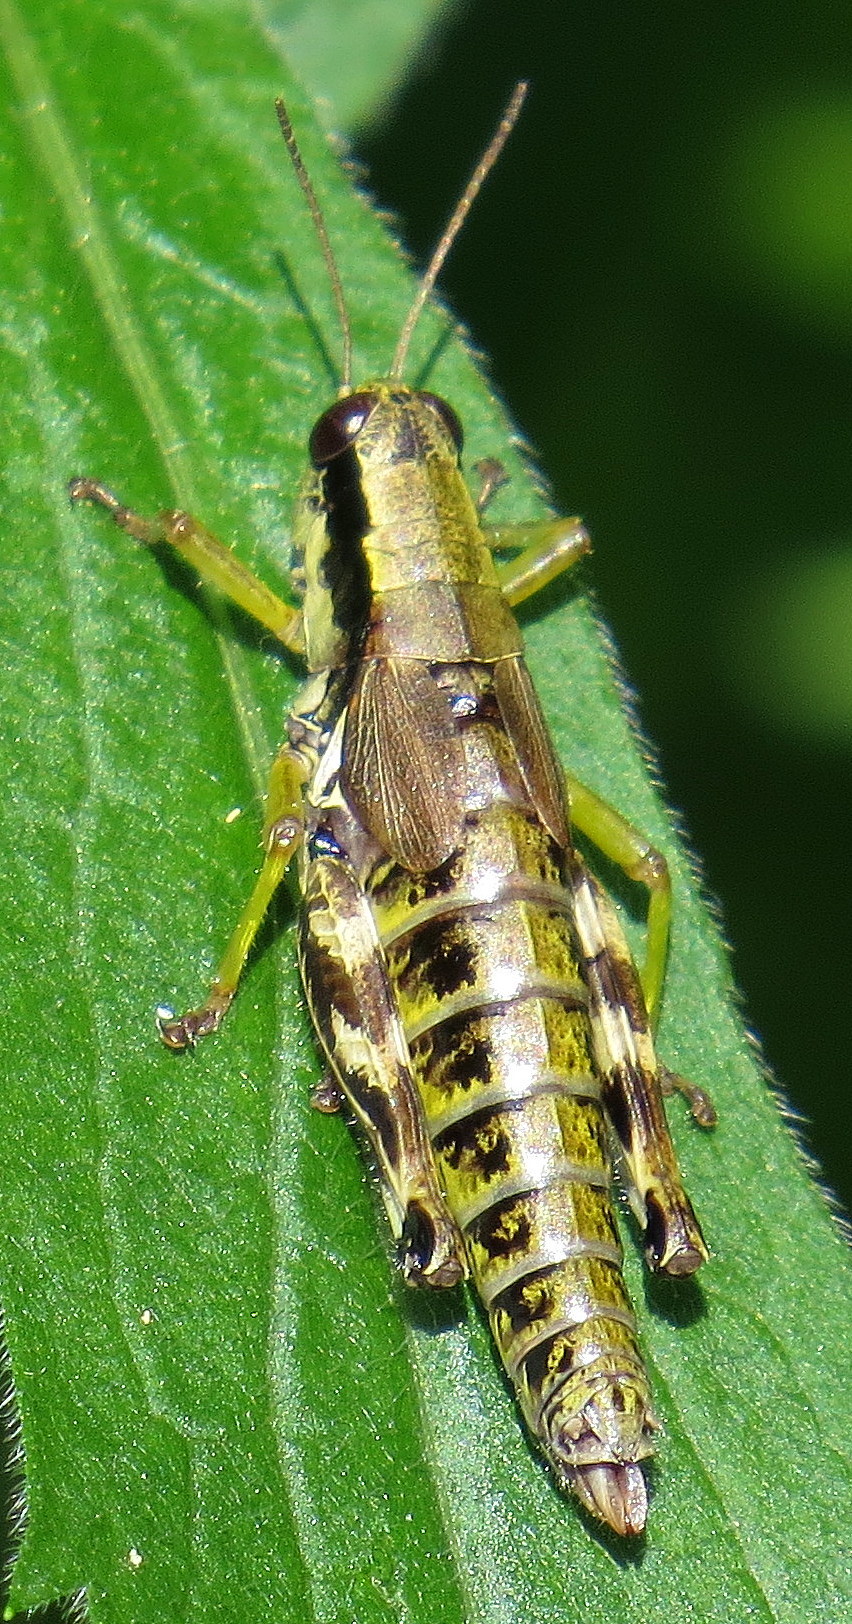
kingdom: Animalia
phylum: Arthropoda
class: Insecta
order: Orthoptera
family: Acrididae
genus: Melanoplus
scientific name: Melanoplus eurycercus
